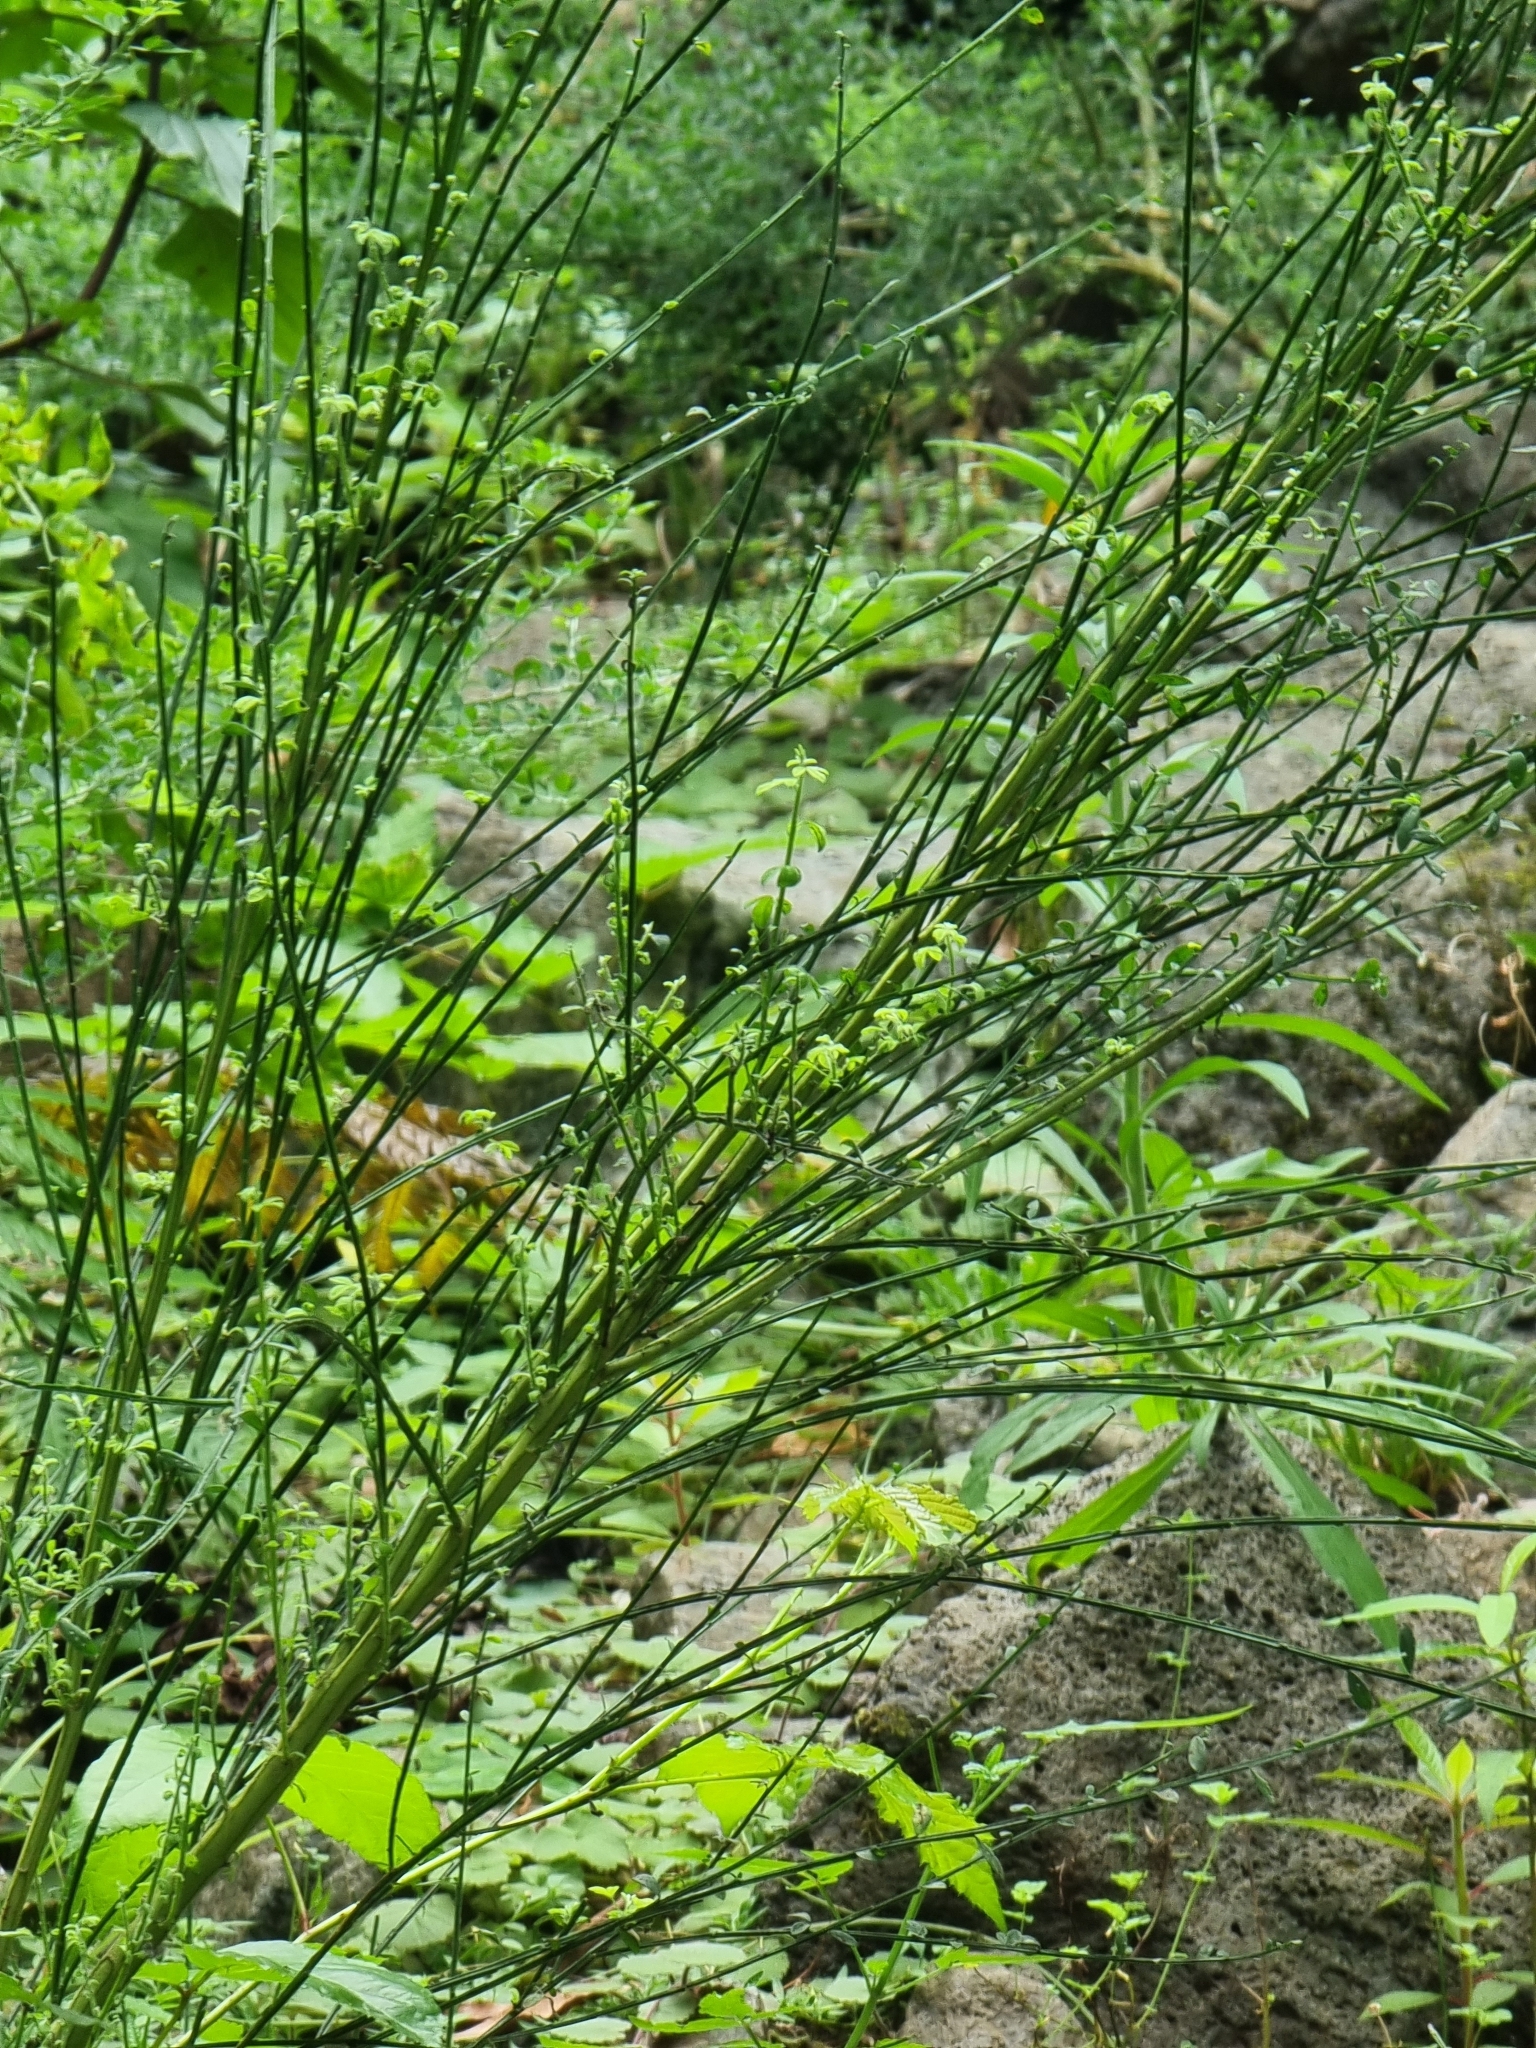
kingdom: Plantae
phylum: Tracheophyta
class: Magnoliopsida
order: Fabales
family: Fabaceae
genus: Cytisus
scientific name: Cytisus scoparius
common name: Scotch broom
